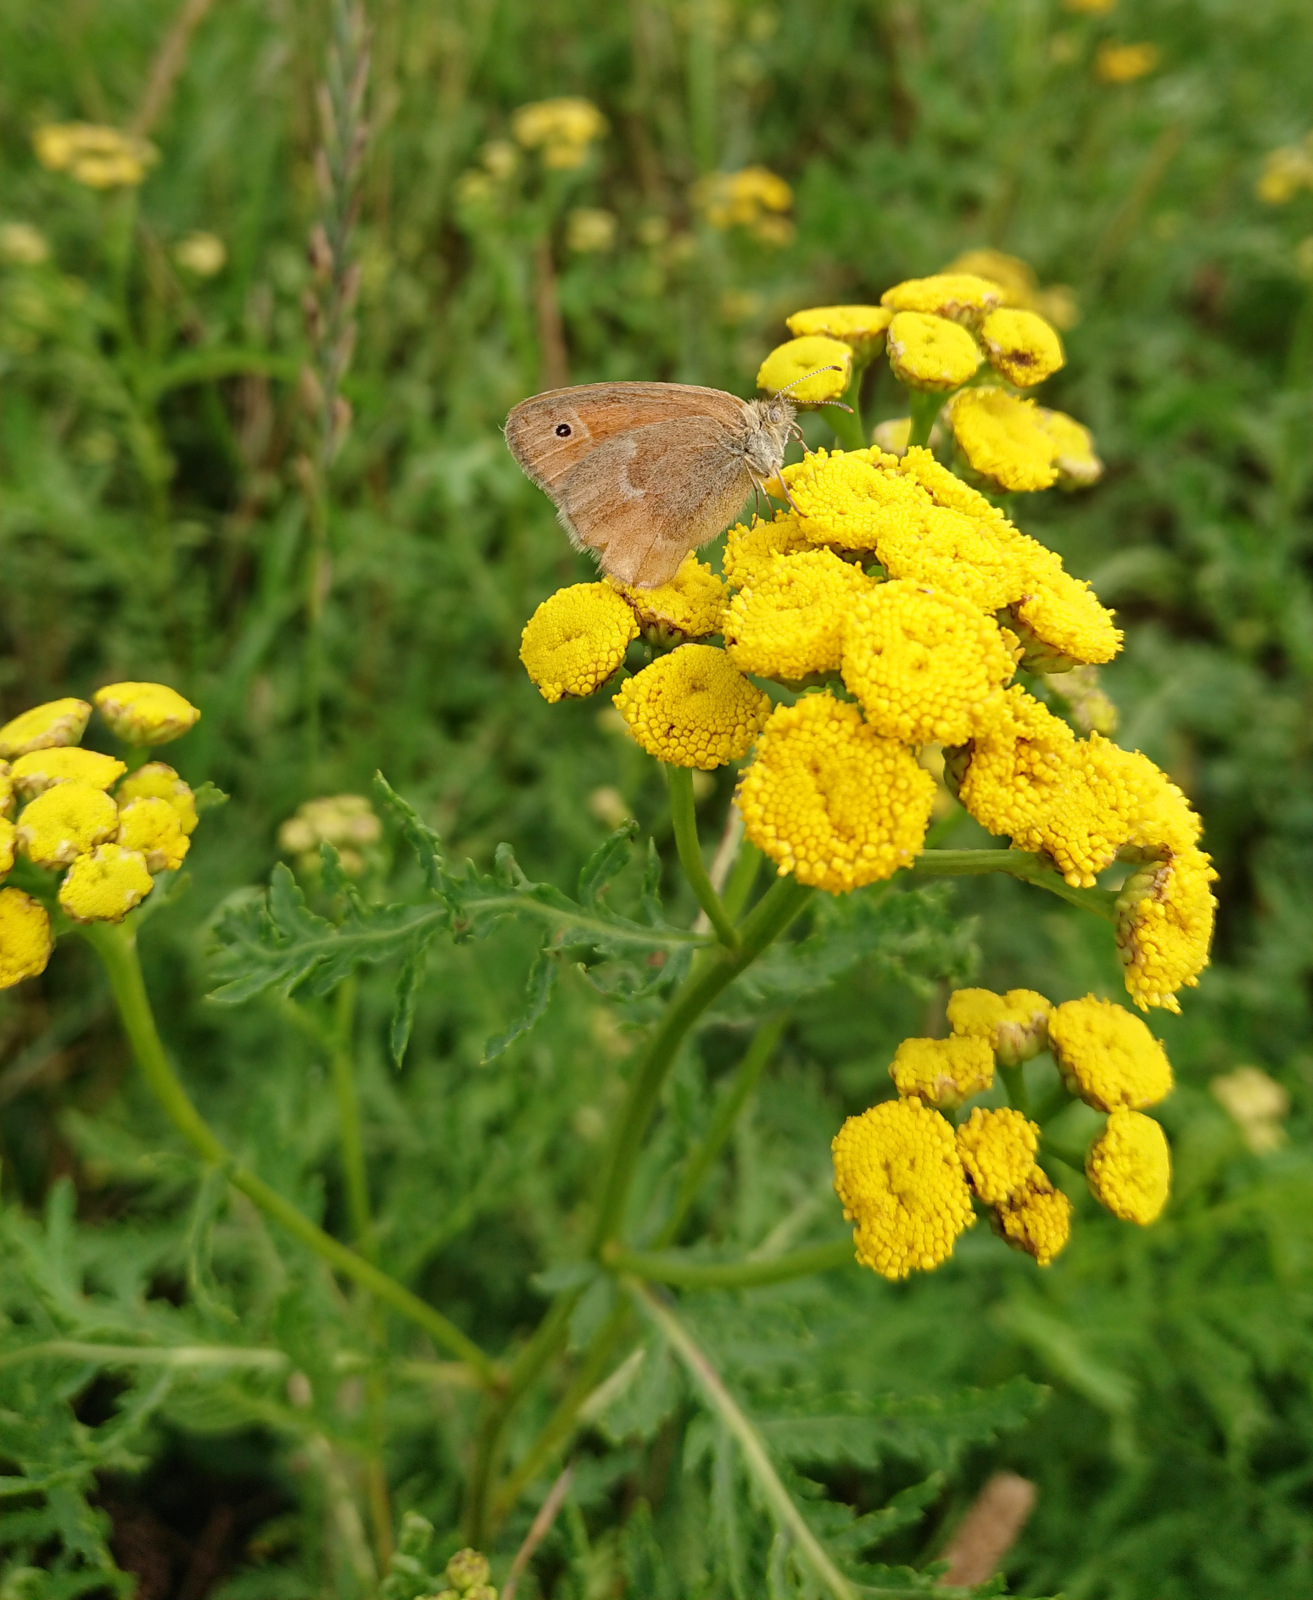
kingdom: Plantae
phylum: Tracheophyta
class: Magnoliopsida
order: Asterales
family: Asteraceae
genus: Tanacetum
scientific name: Tanacetum vulgare
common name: Common tansy
